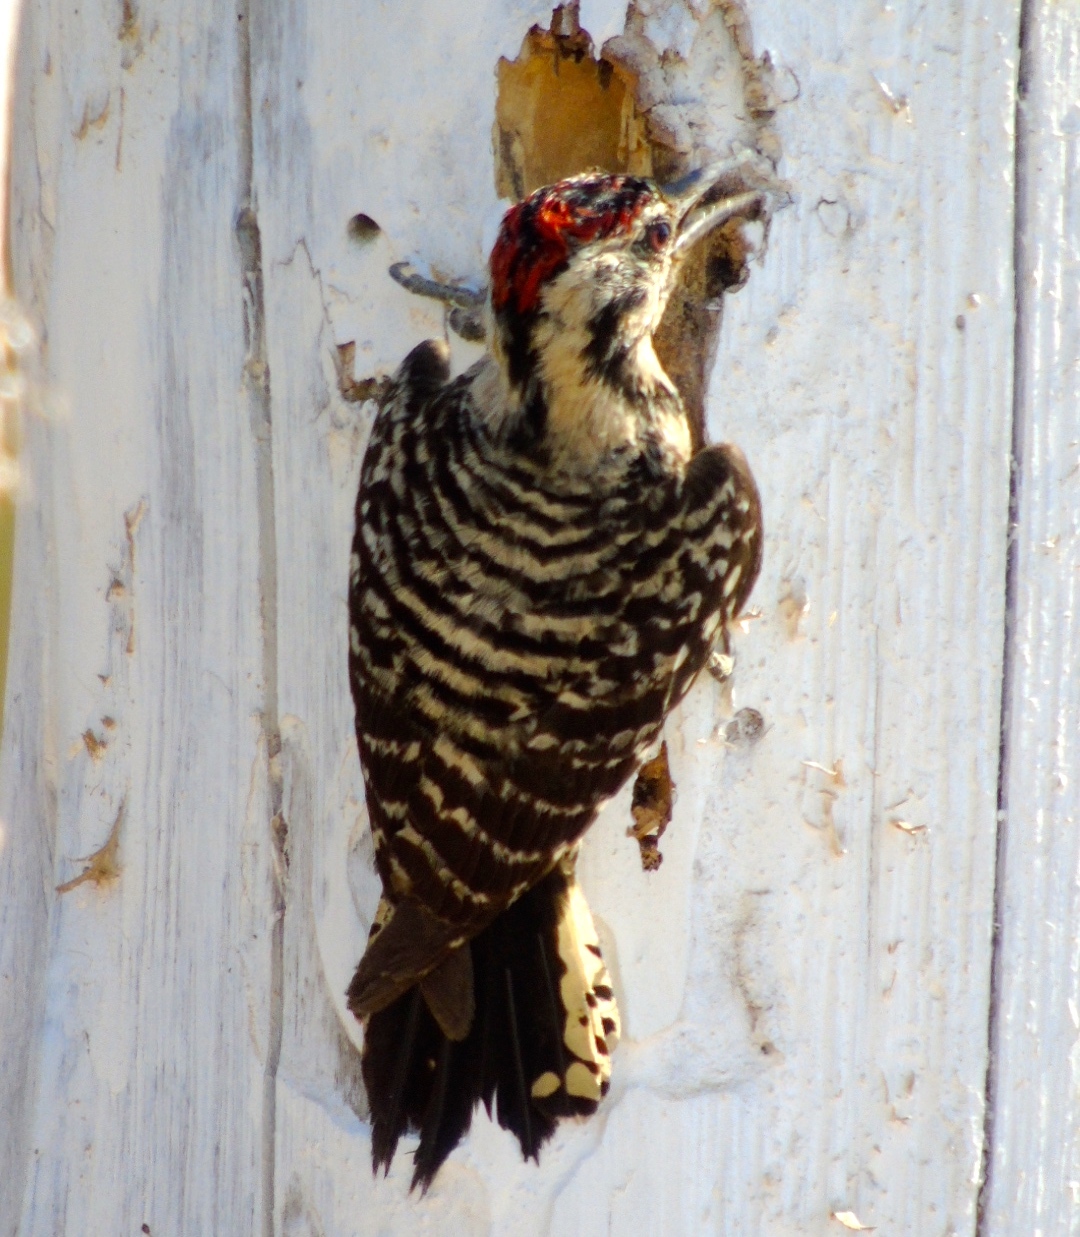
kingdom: Animalia
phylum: Chordata
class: Aves
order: Piciformes
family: Picidae
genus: Dryobates
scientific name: Dryobates scalaris
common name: Ladder-backed woodpecker
